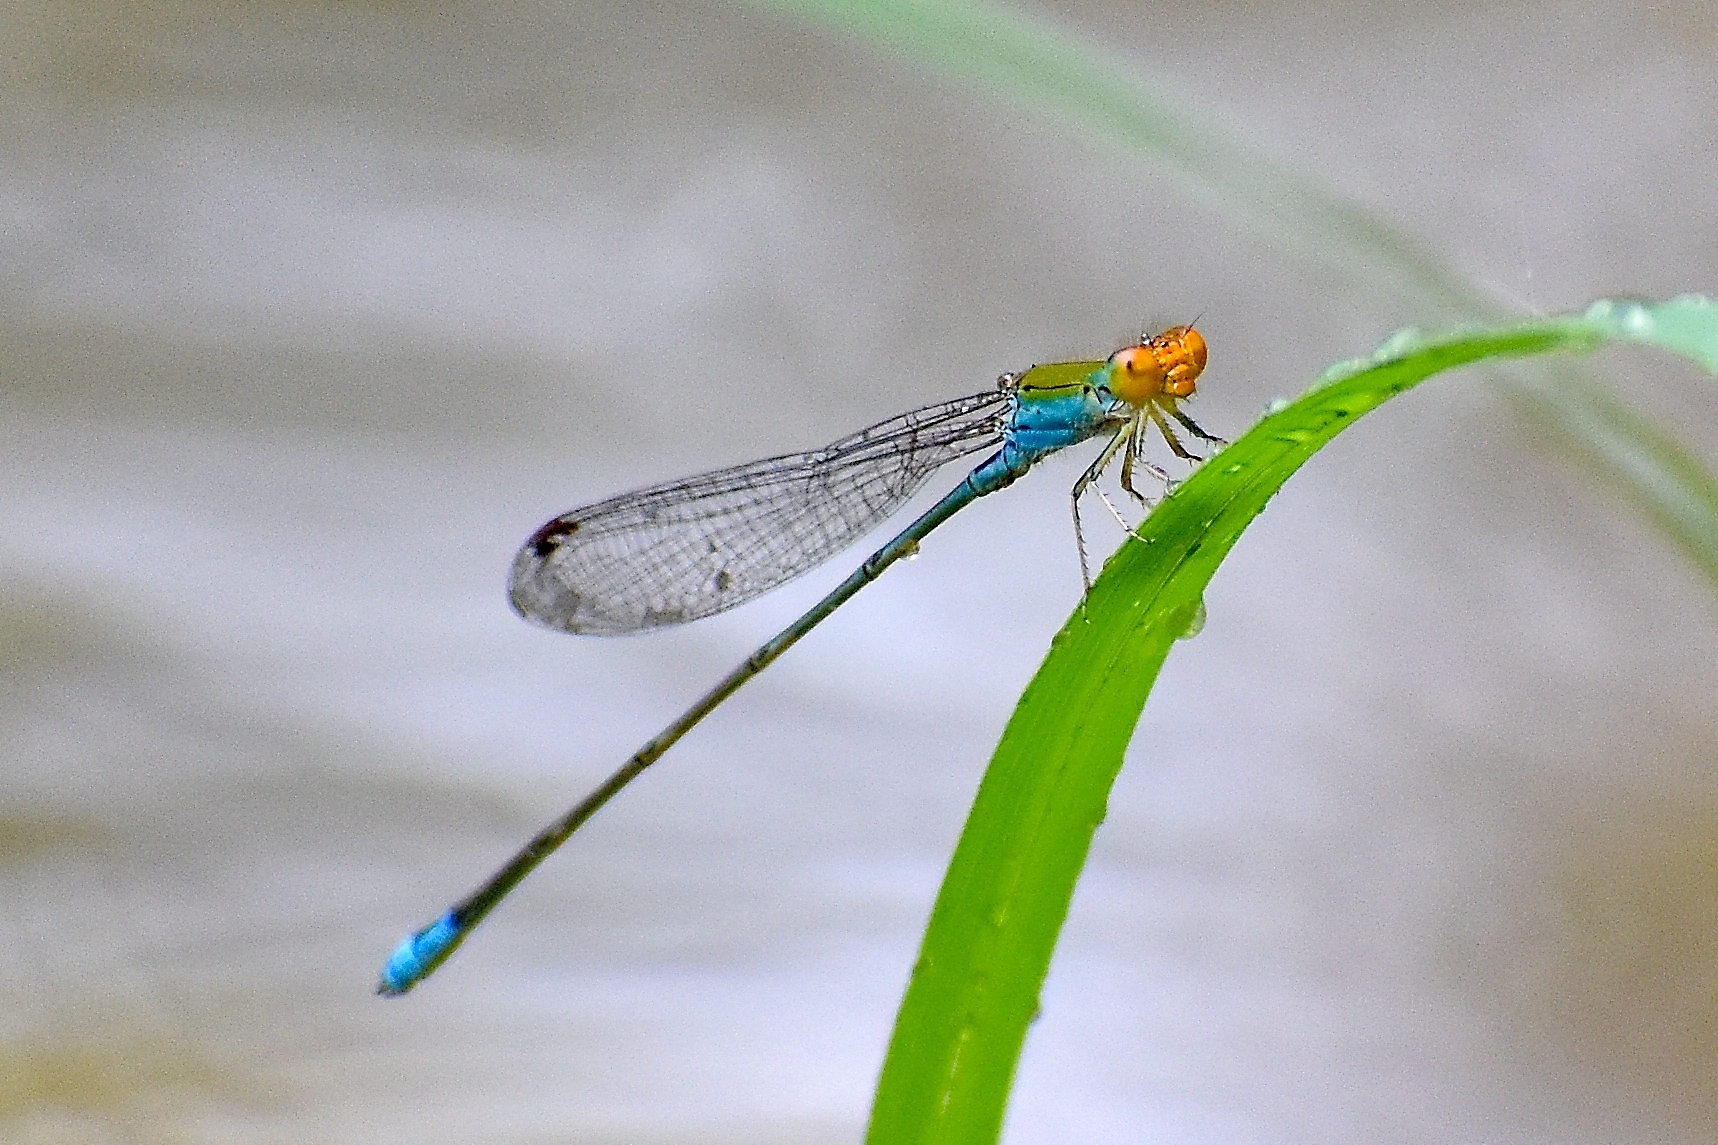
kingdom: Animalia
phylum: Arthropoda
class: Insecta
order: Odonata
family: Coenagrionidae
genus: Pseudagrion
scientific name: Pseudagrion rubriceps
